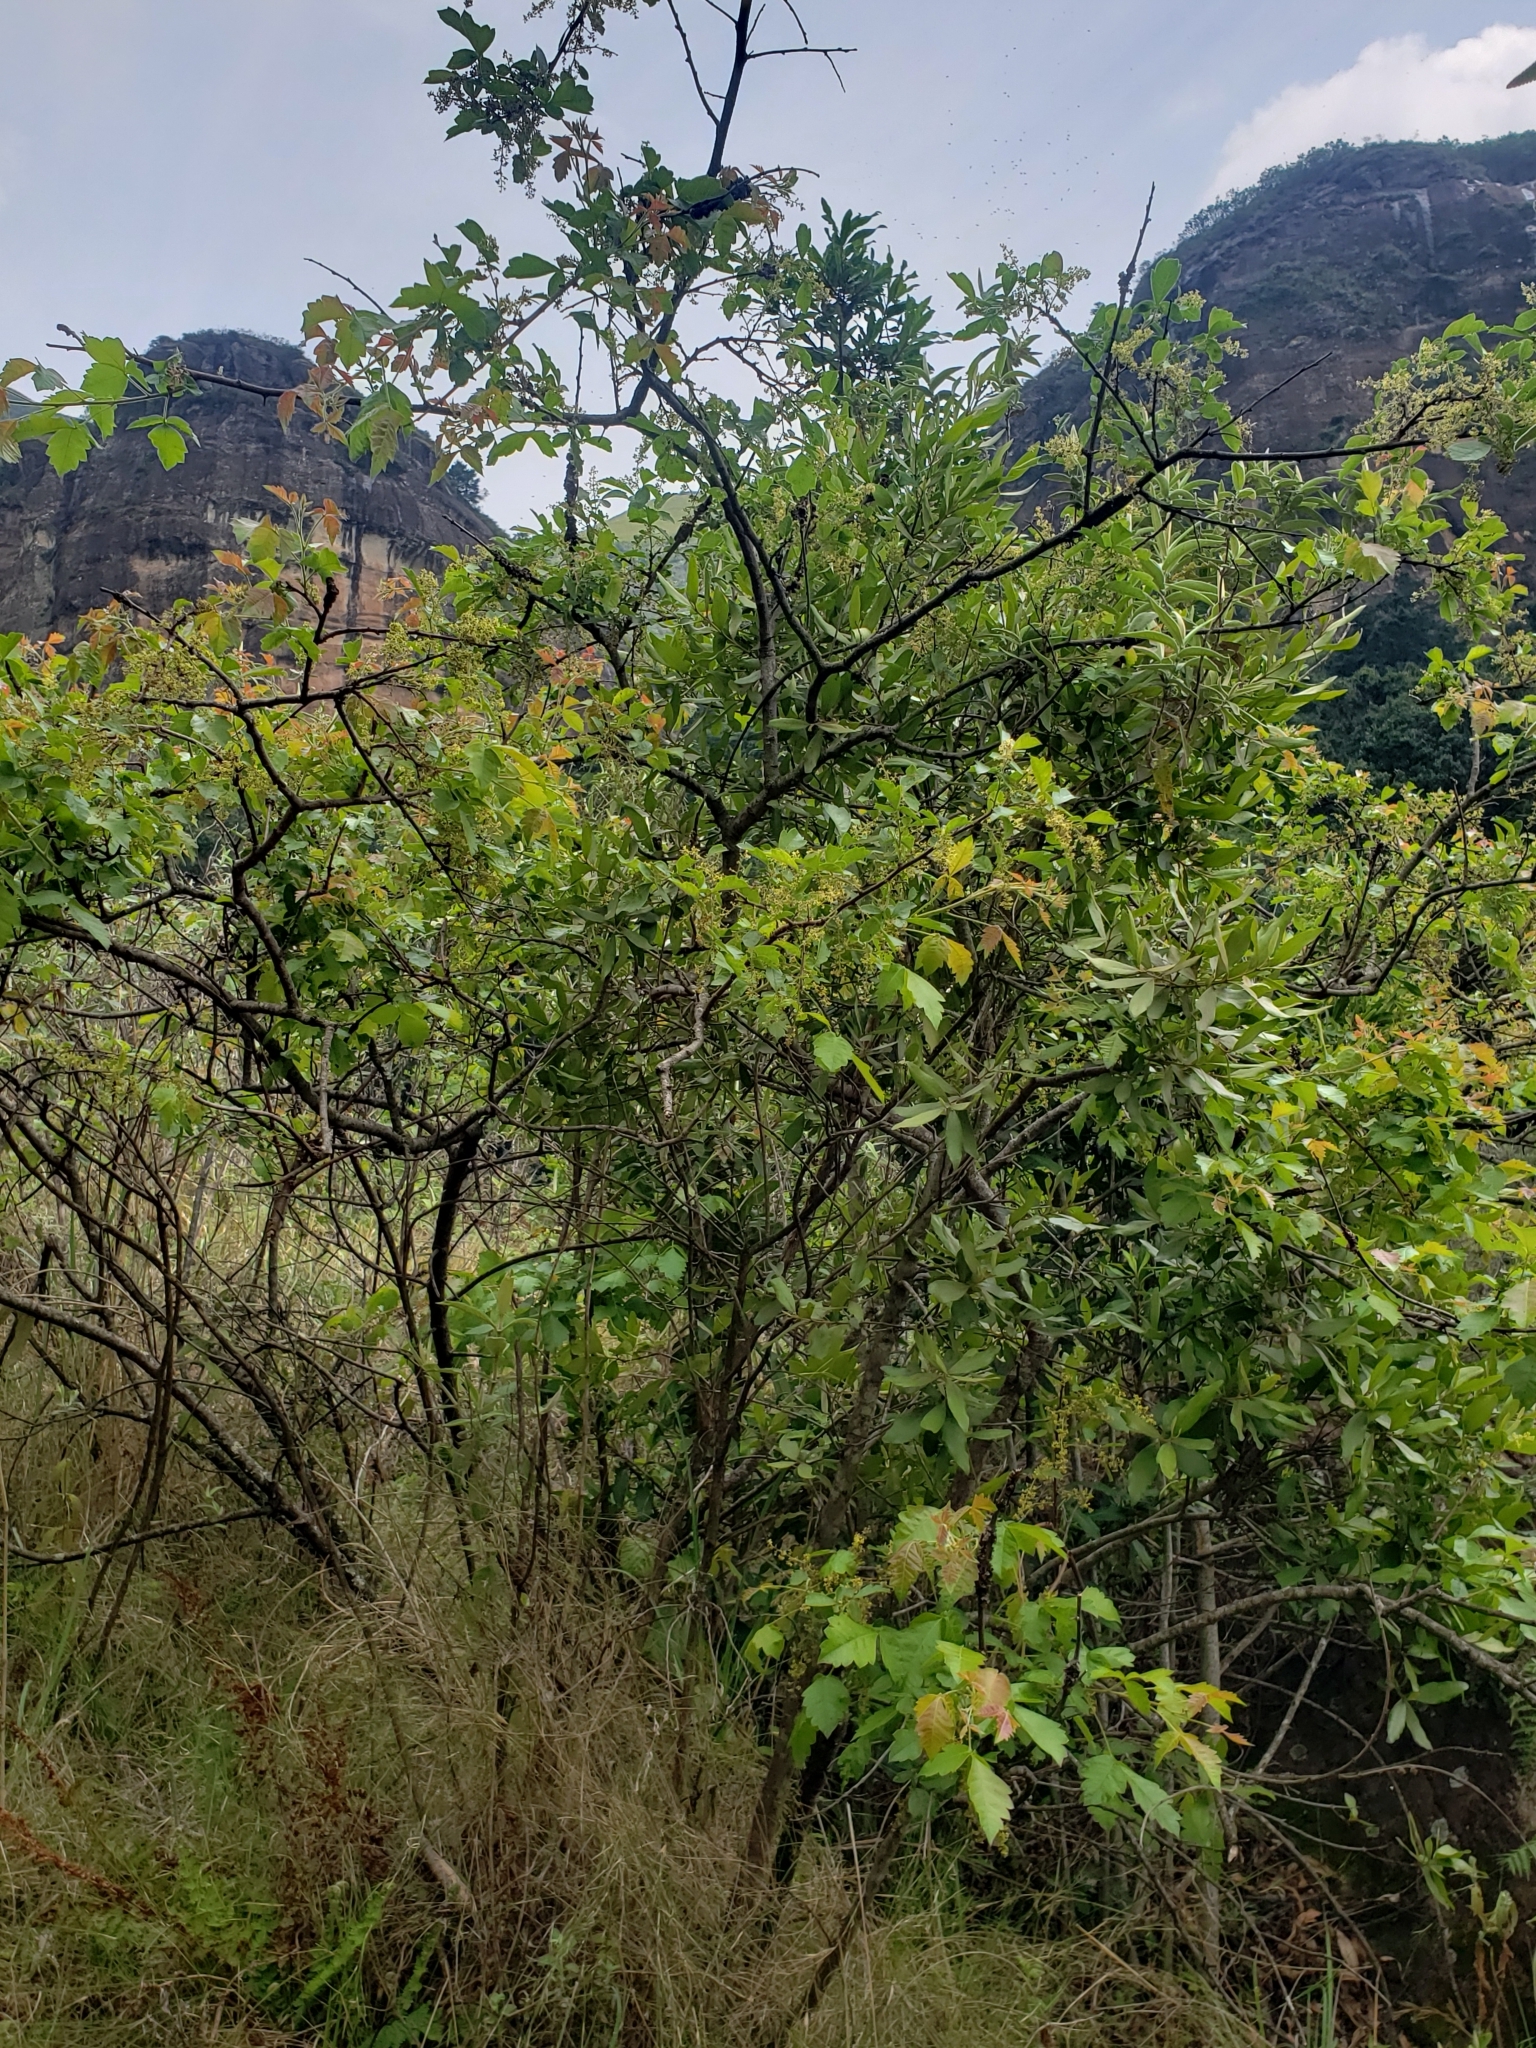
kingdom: Plantae
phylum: Tracheophyta
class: Magnoliopsida
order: Sapindales
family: Anacardiaceae
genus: Searsia
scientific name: Searsia dentata
